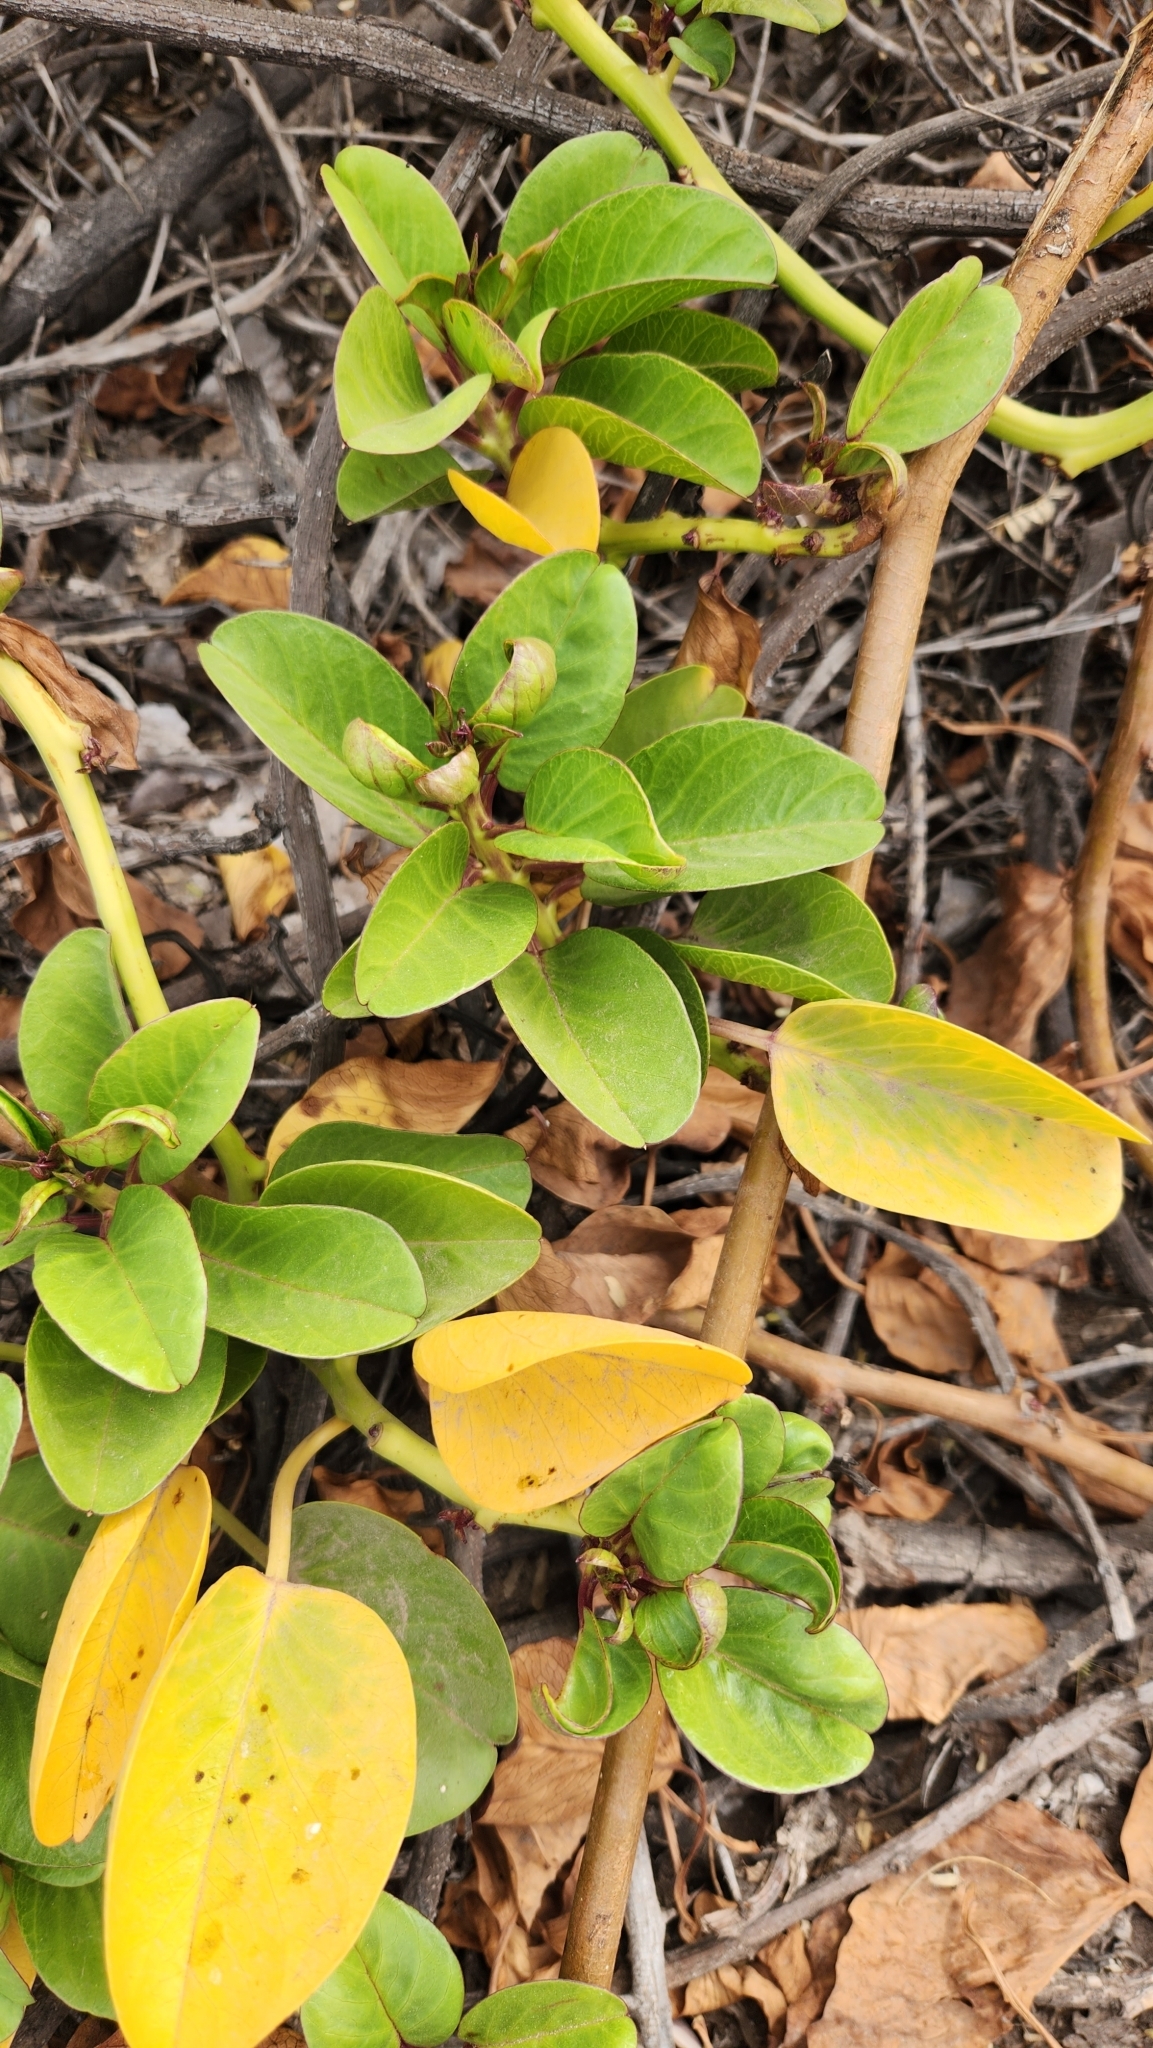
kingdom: Plantae
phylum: Tracheophyta
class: Magnoliopsida
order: Solanales
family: Convolvulaceae
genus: Ipomoea
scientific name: Ipomoea pes-caprae
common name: Beach morning glory
